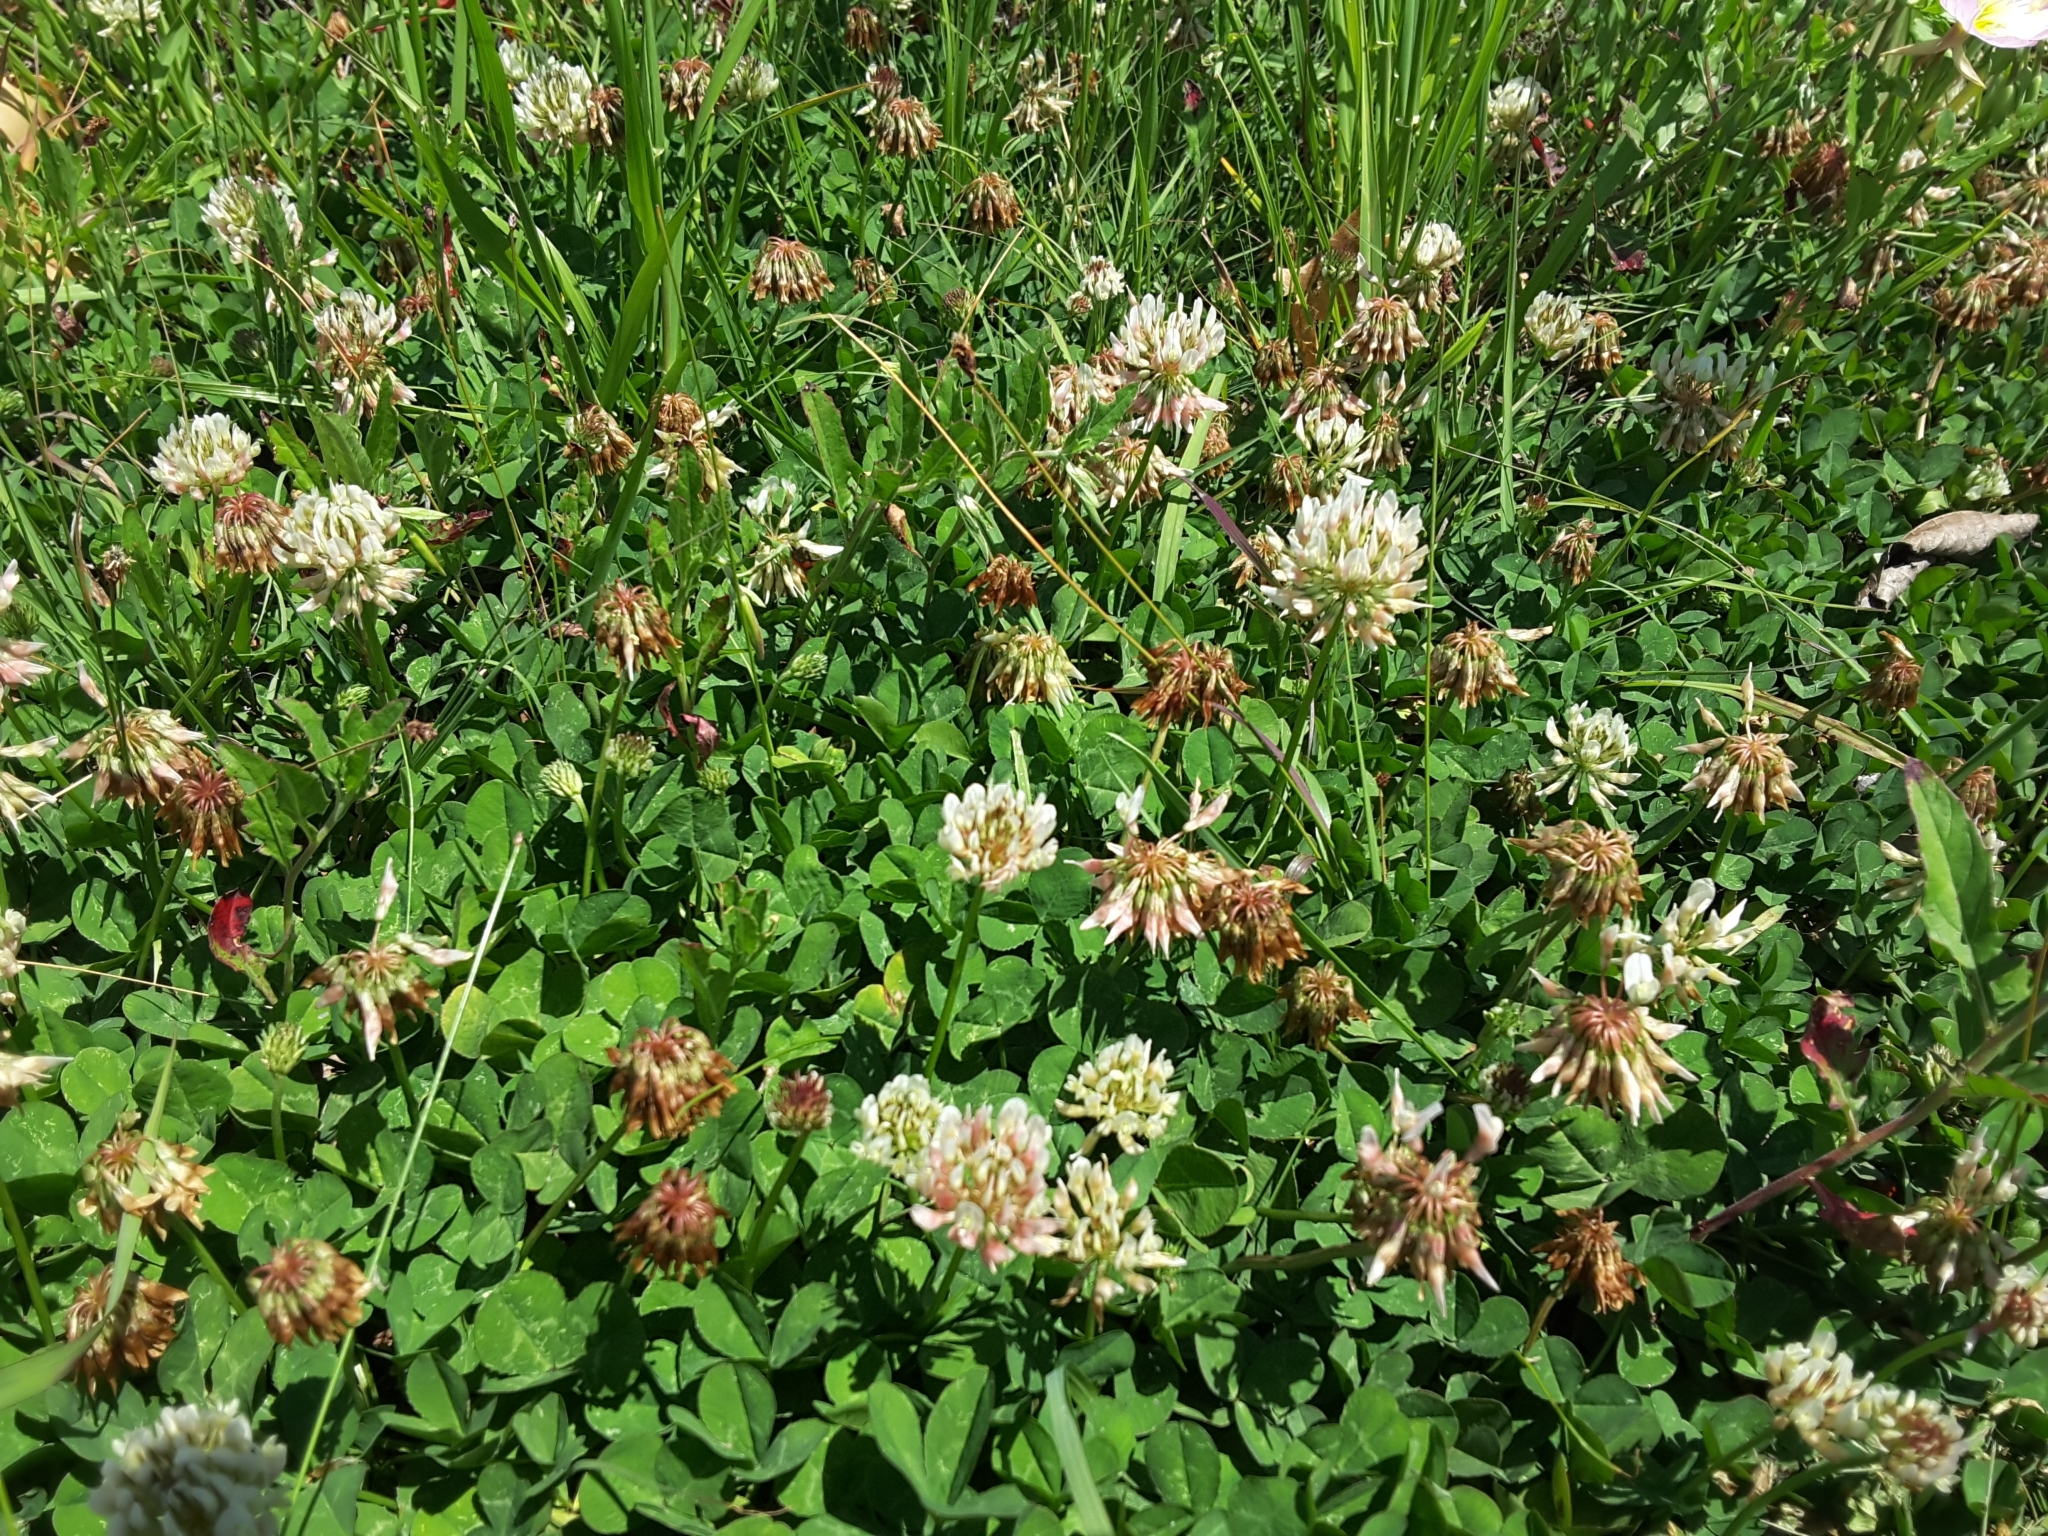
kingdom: Plantae
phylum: Tracheophyta
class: Magnoliopsida
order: Fabales
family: Fabaceae
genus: Trifolium
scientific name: Trifolium repens
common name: White clover
